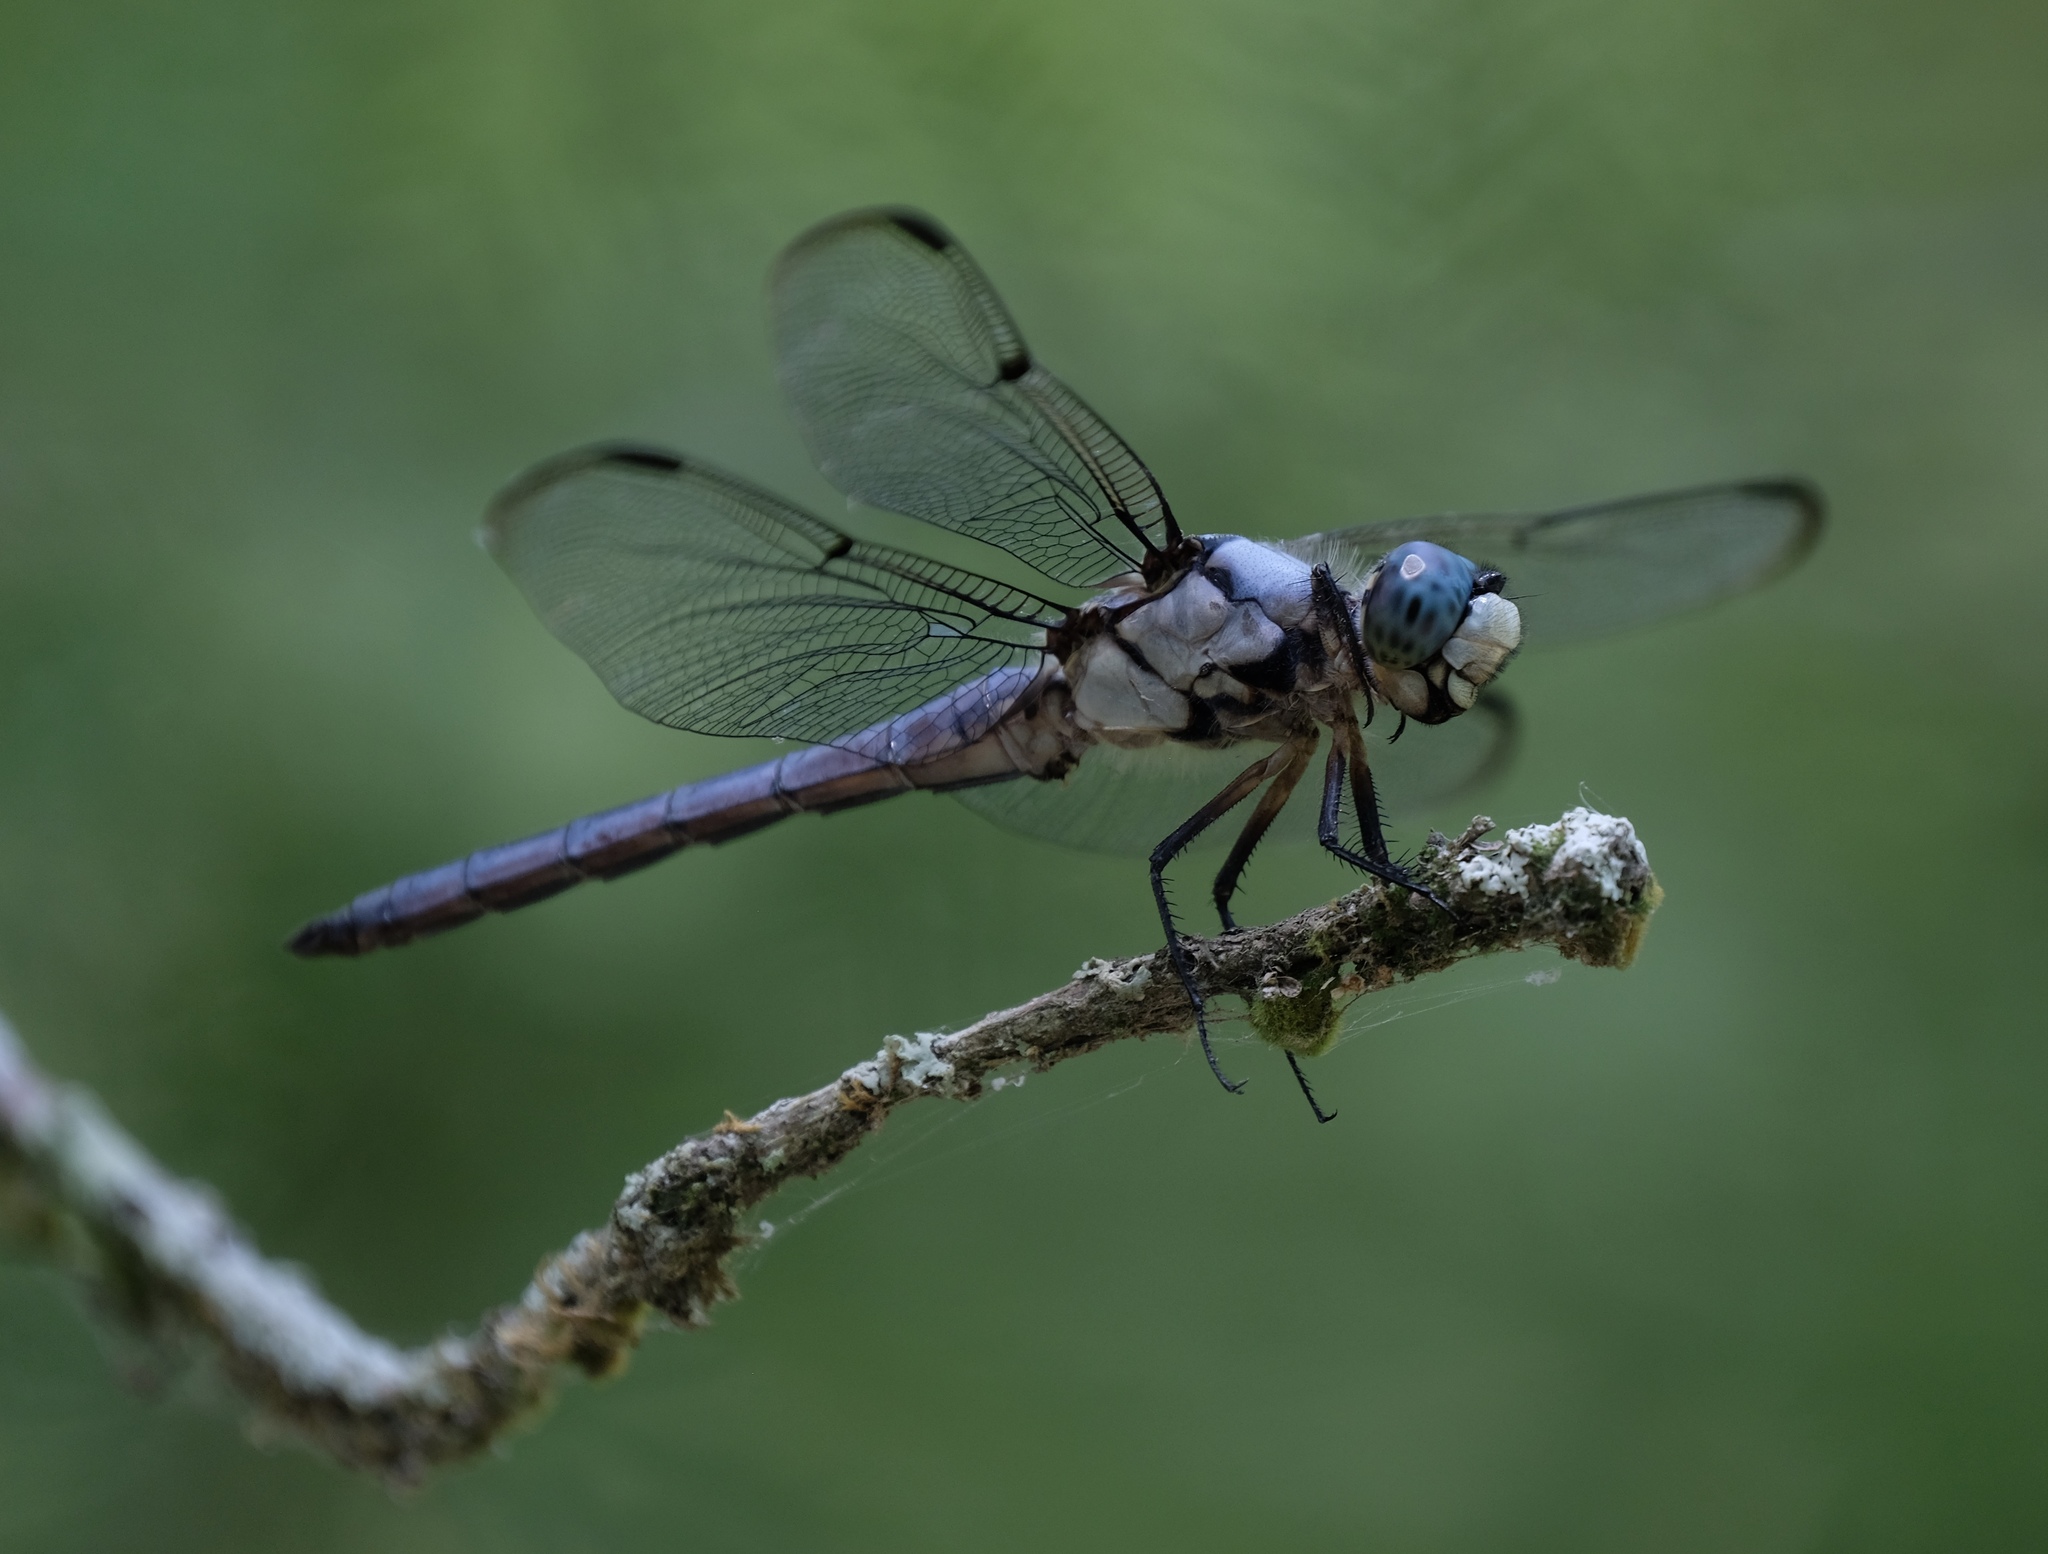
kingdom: Animalia
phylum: Arthropoda
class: Insecta
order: Odonata
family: Libellulidae
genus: Libellula
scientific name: Libellula vibrans
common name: Great blue skimmer
